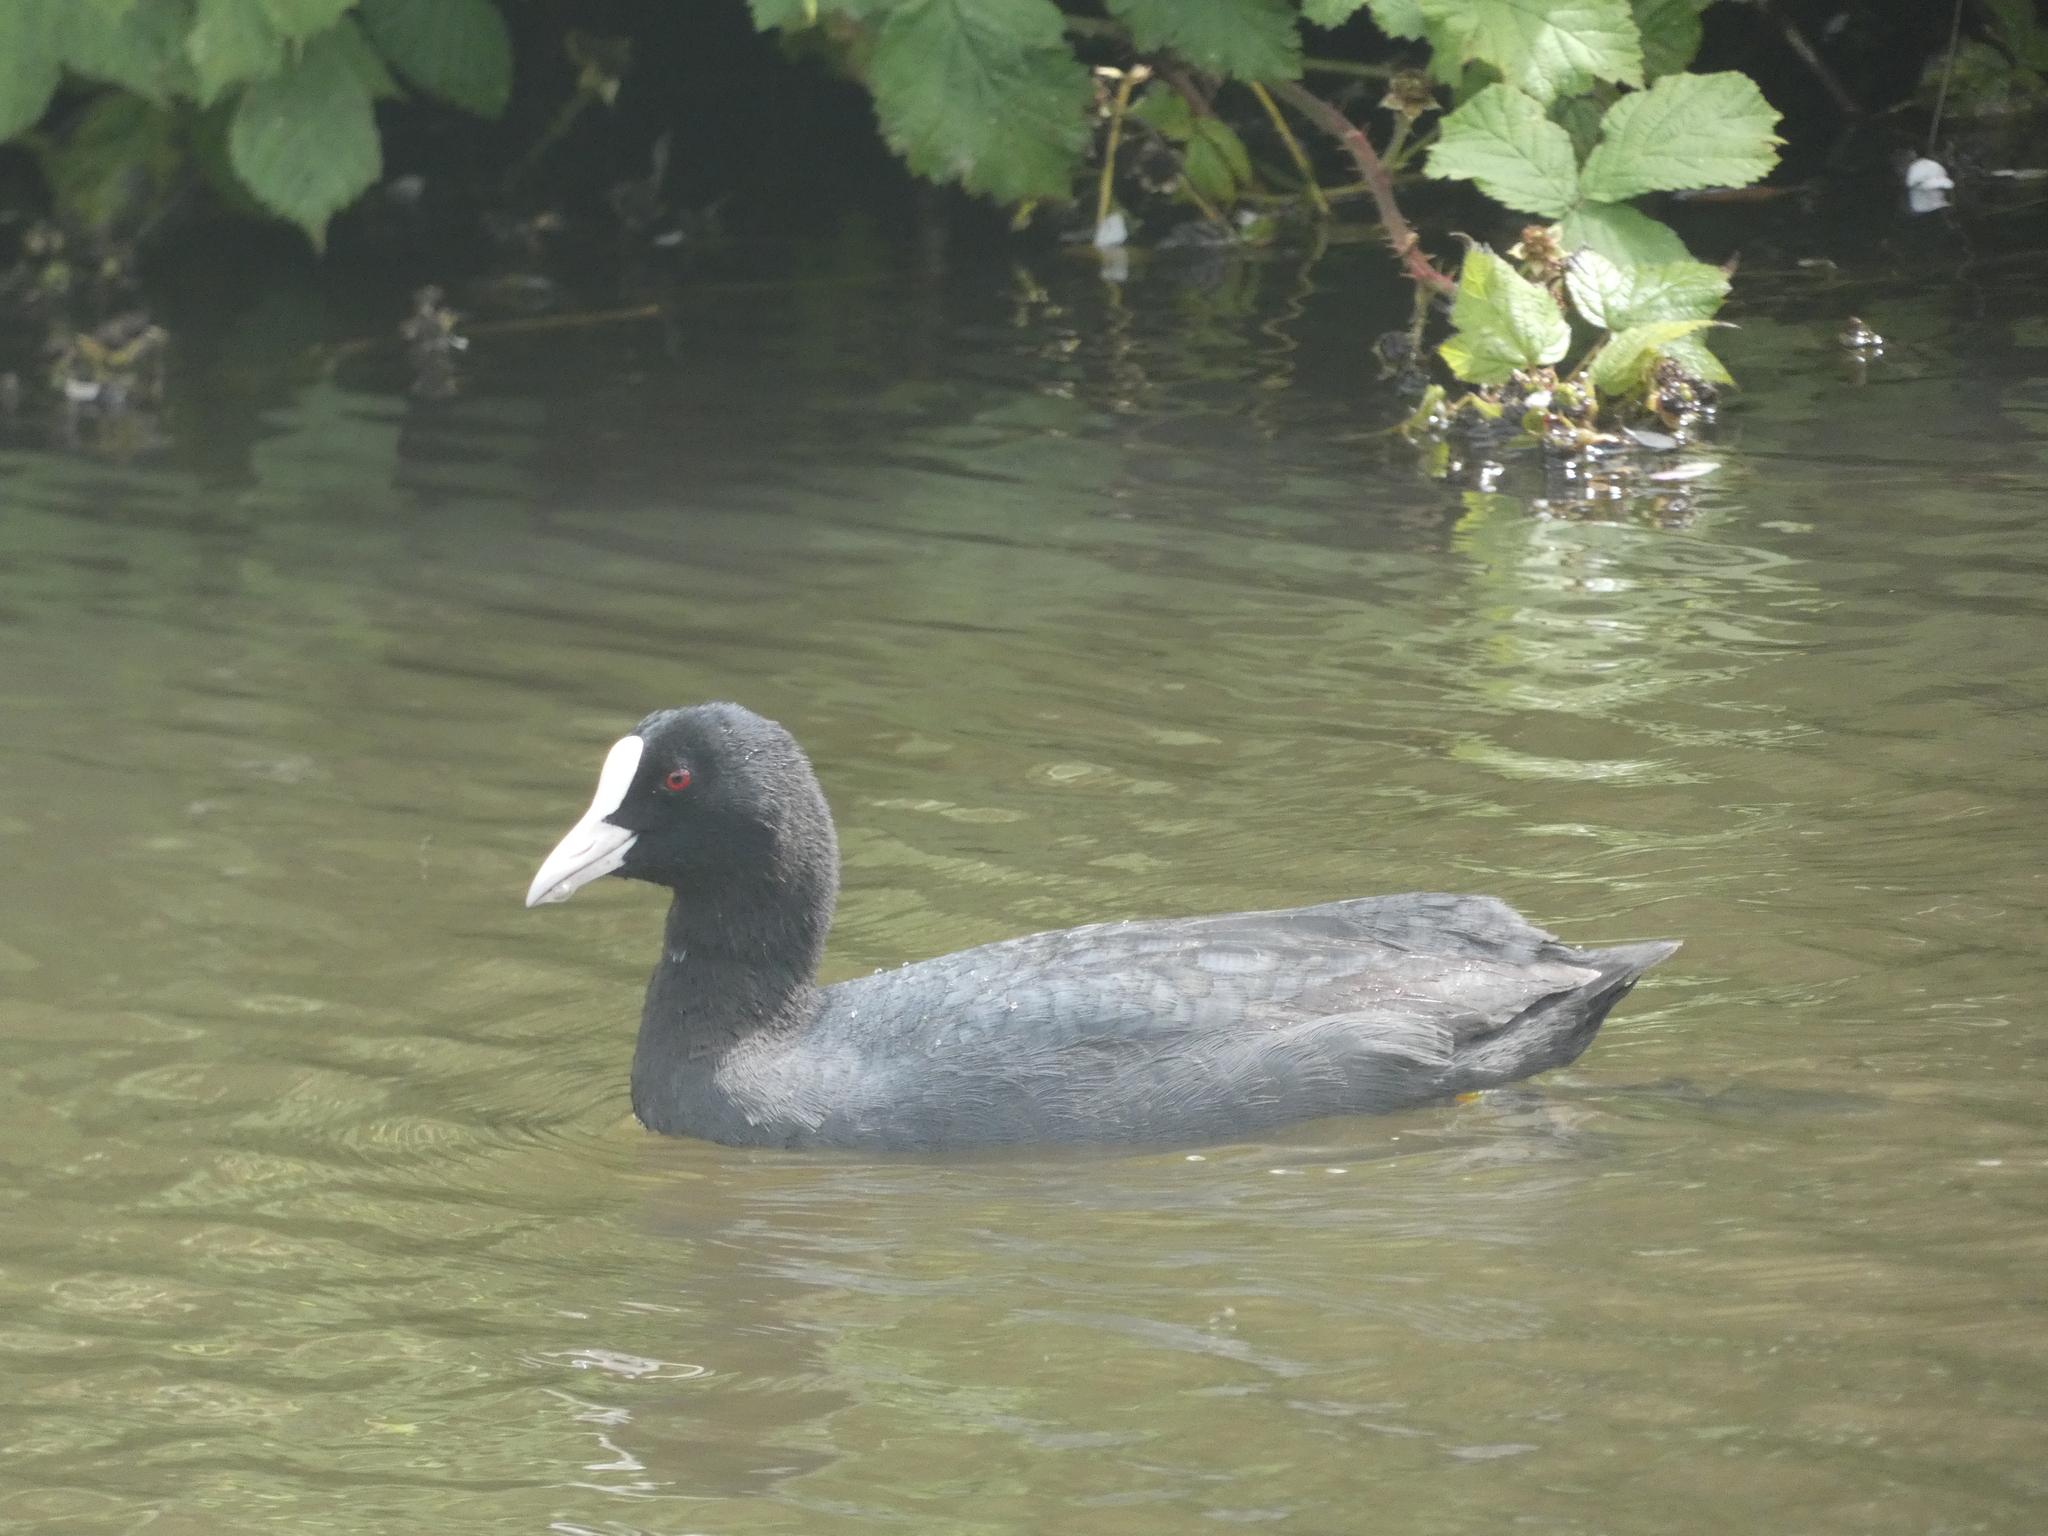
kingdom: Animalia
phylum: Chordata
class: Aves
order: Gruiformes
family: Rallidae
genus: Fulica
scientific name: Fulica atra
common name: Eurasian coot
